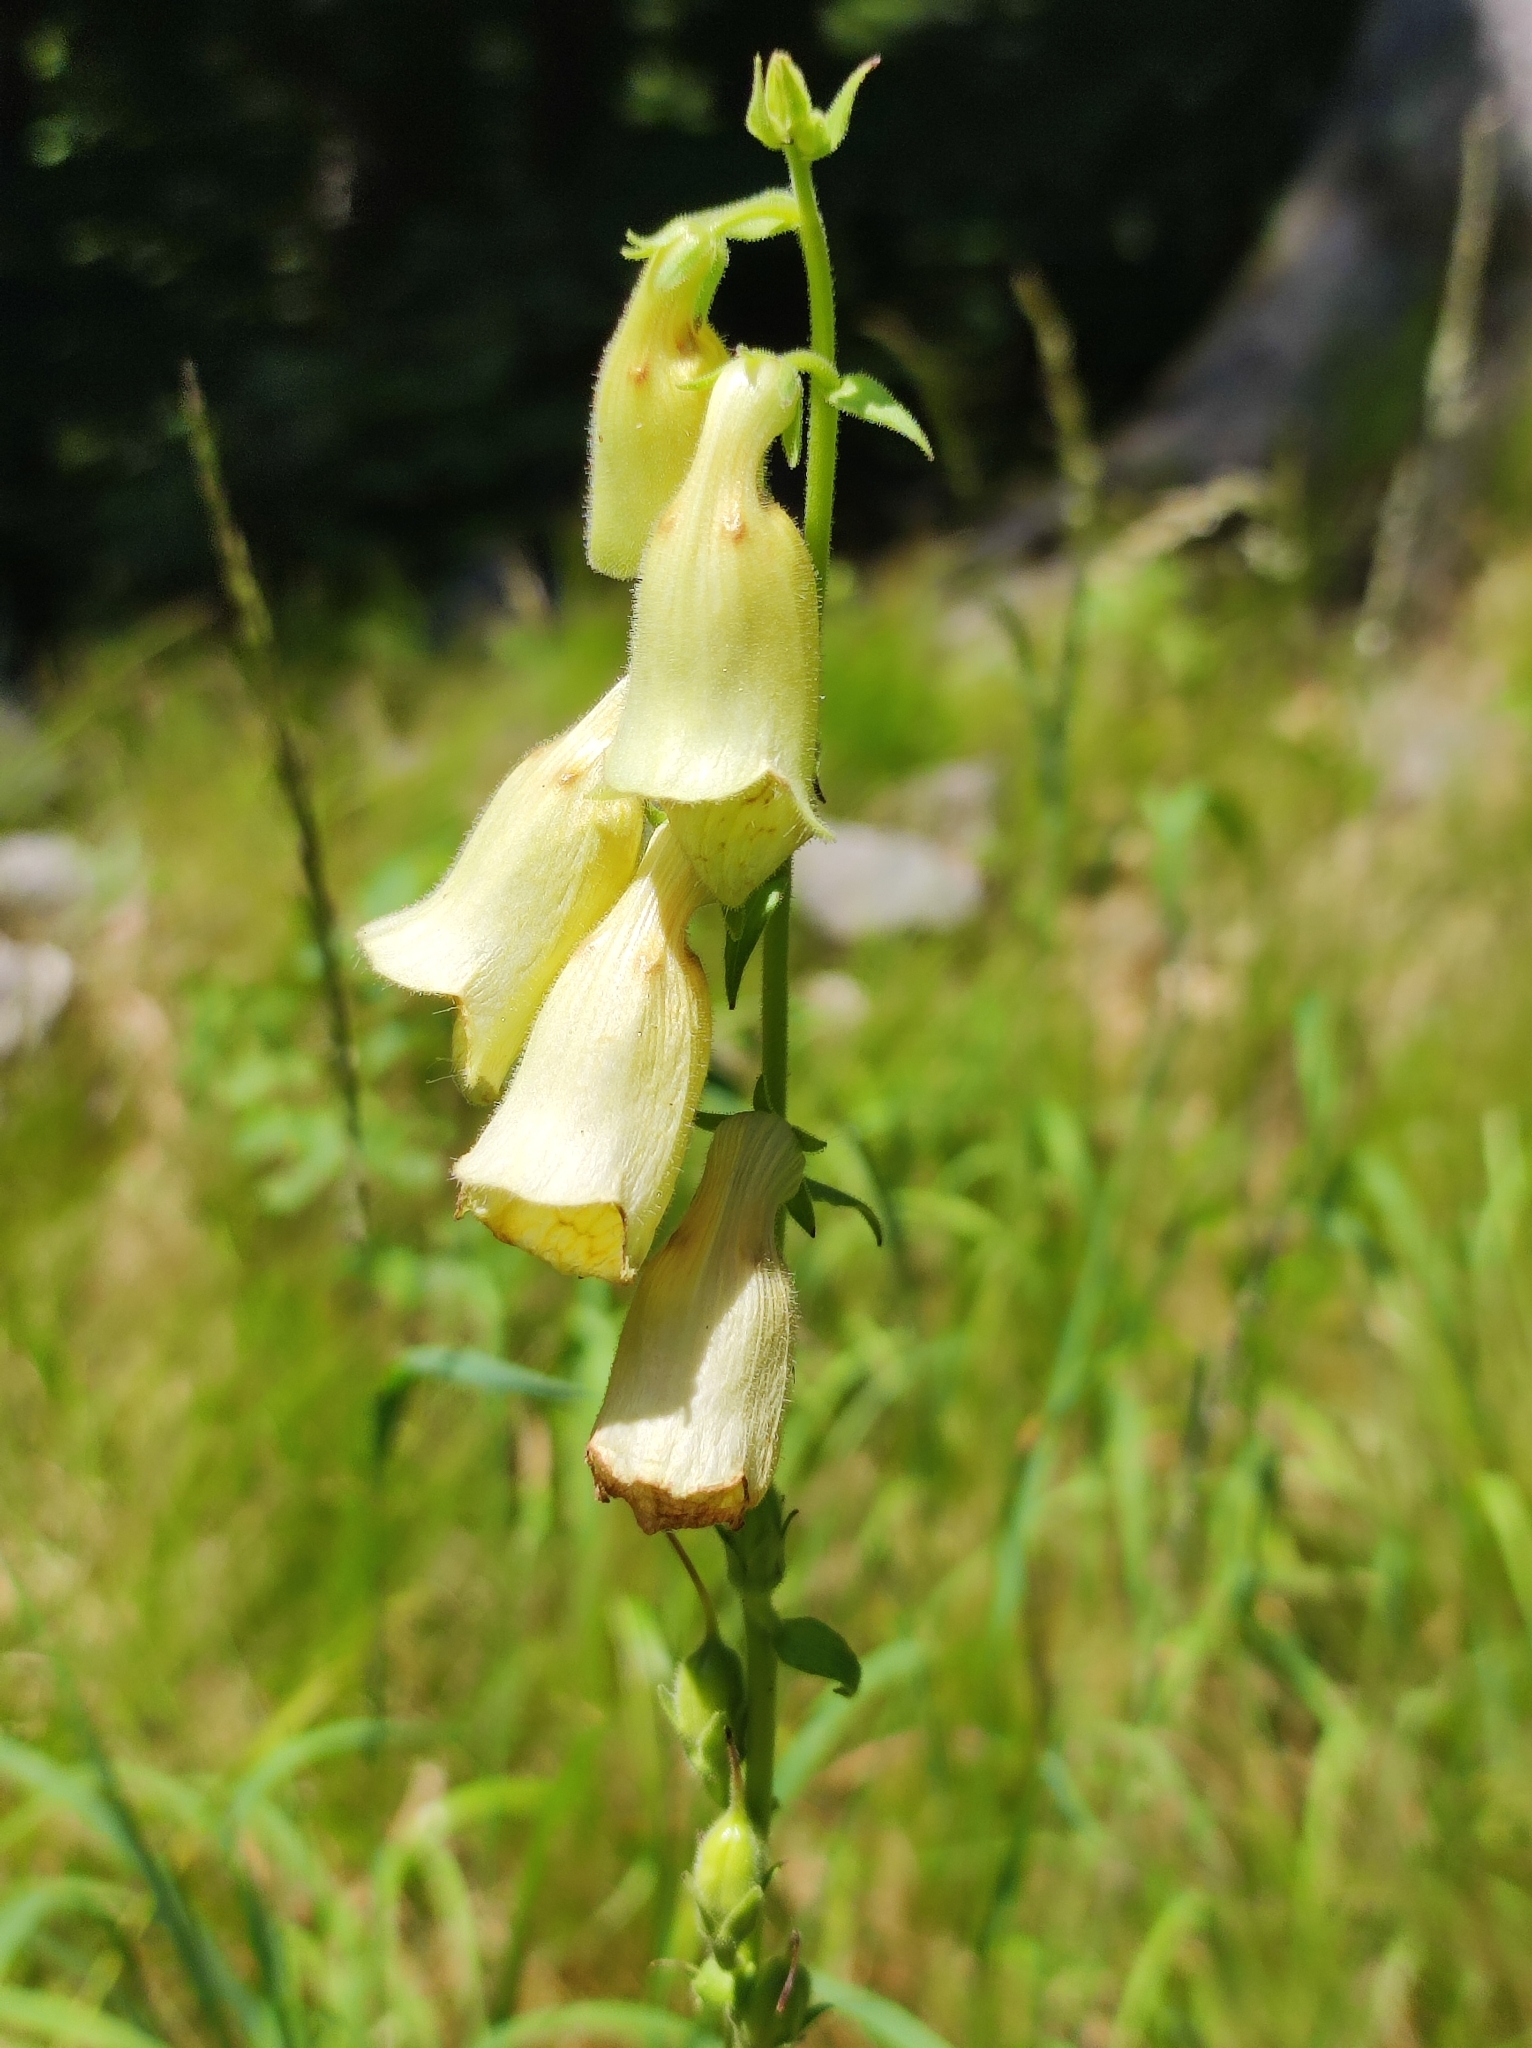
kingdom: Plantae
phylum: Tracheophyta
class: Magnoliopsida
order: Lamiales
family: Plantaginaceae
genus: Digitalis
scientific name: Digitalis grandiflora
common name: Yellow foxglove
